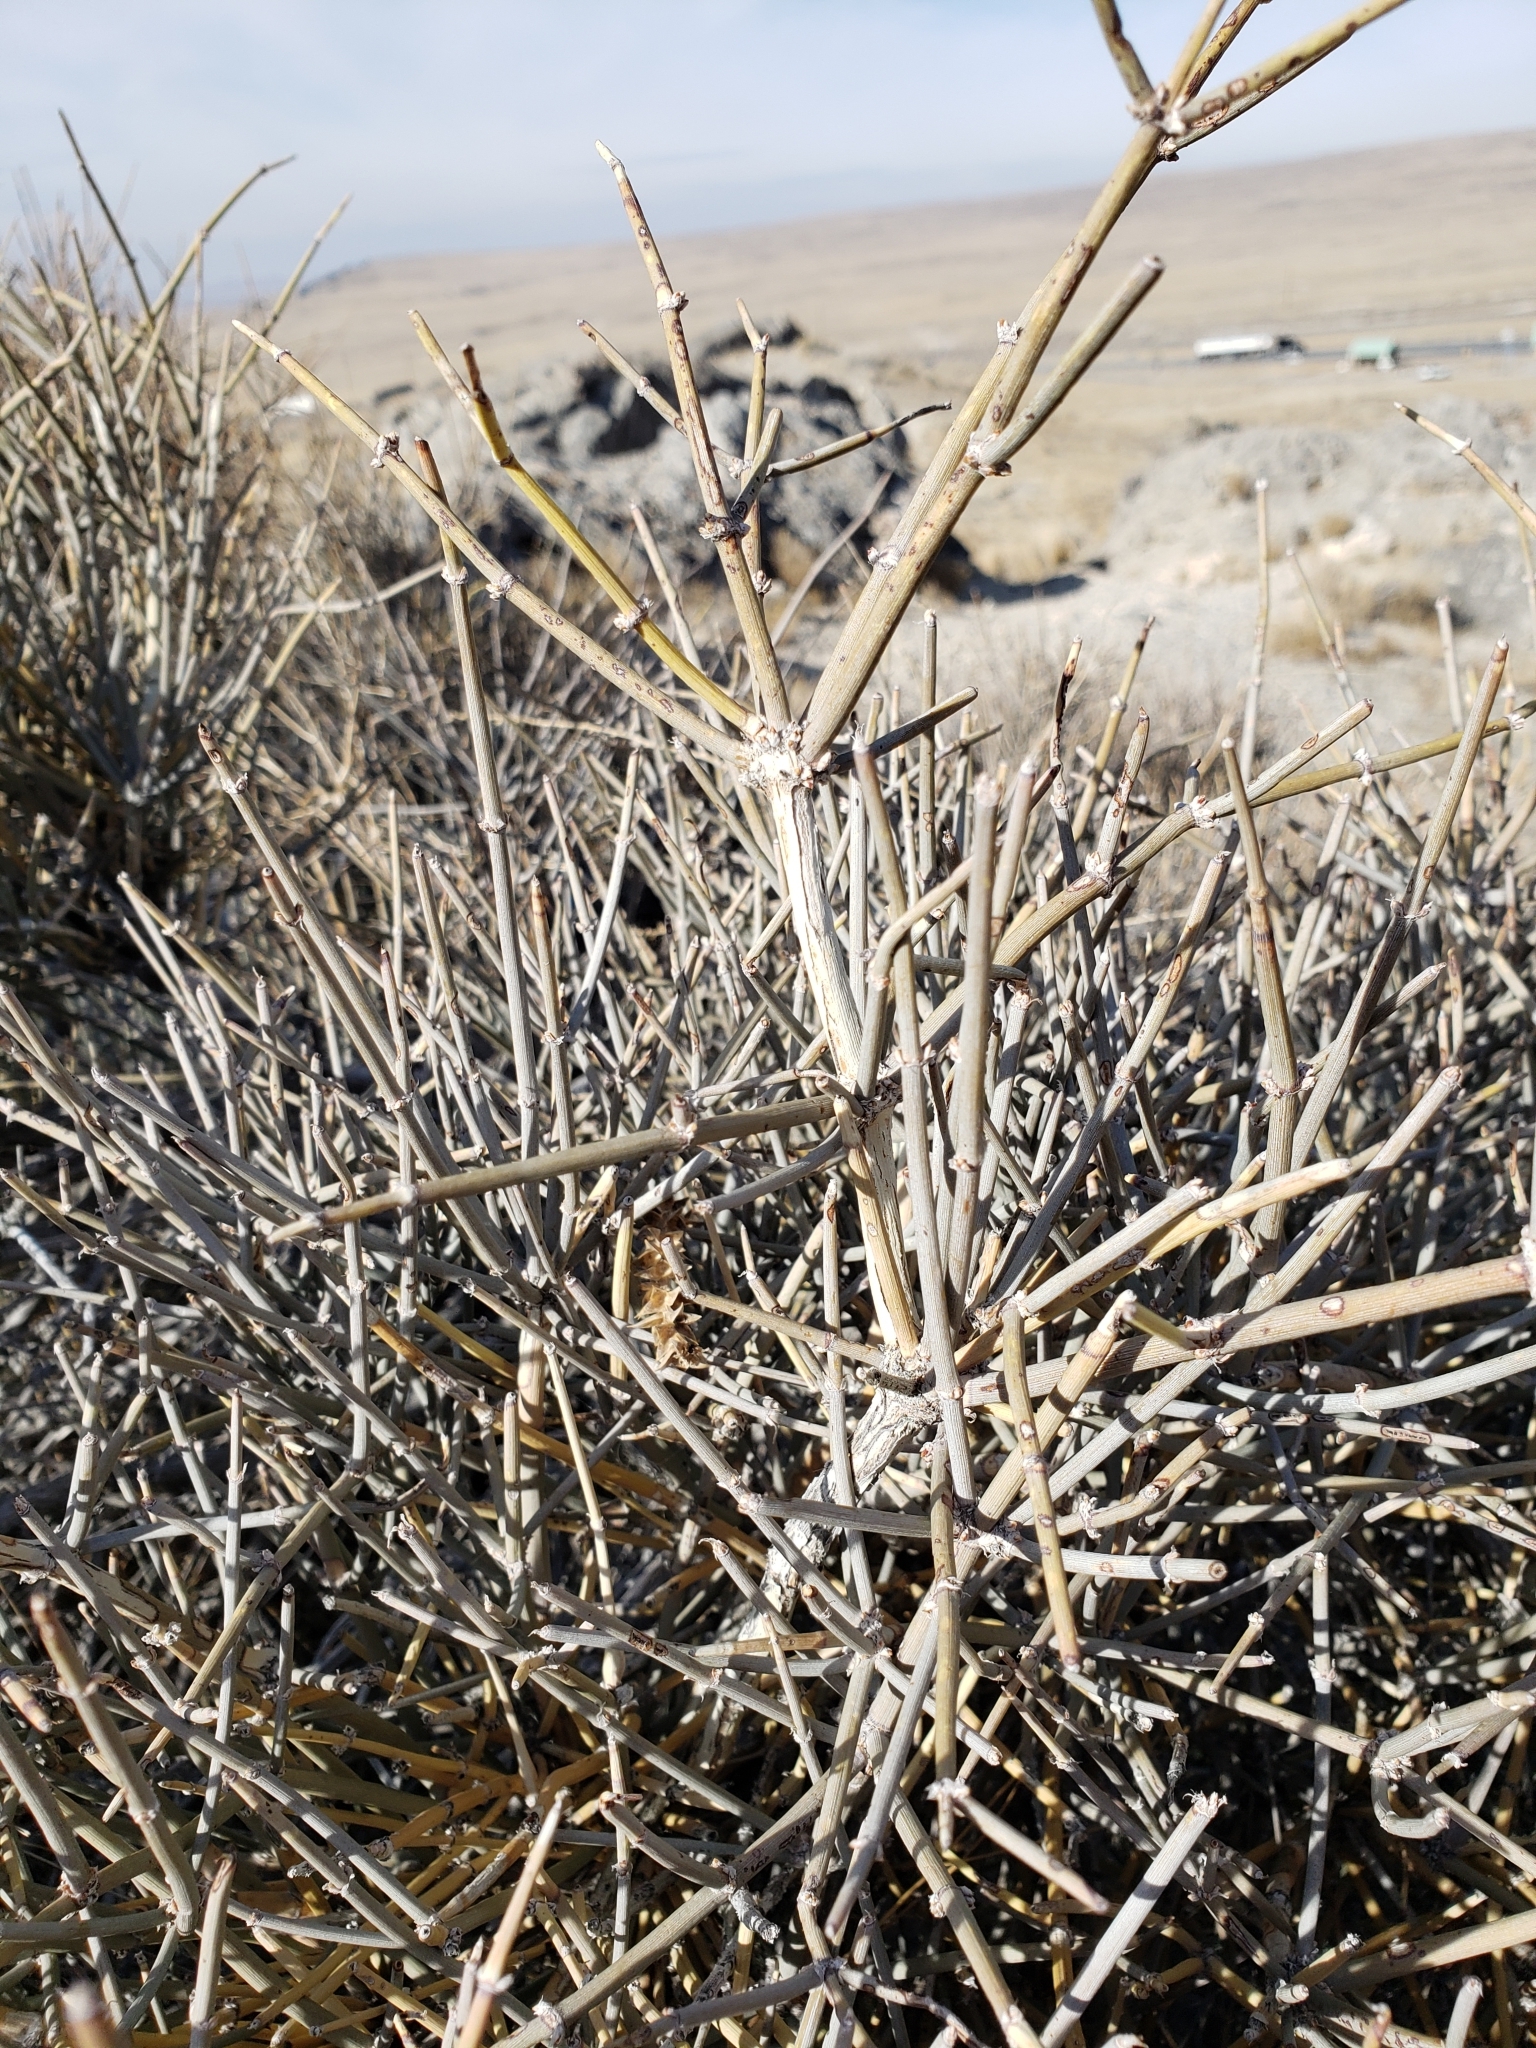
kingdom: Plantae
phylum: Tracheophyta
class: Gnetopsida
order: Ephedrales
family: Ephedraceae
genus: Ephedra
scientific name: Ephedra nevadensis
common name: Gray ephedra
